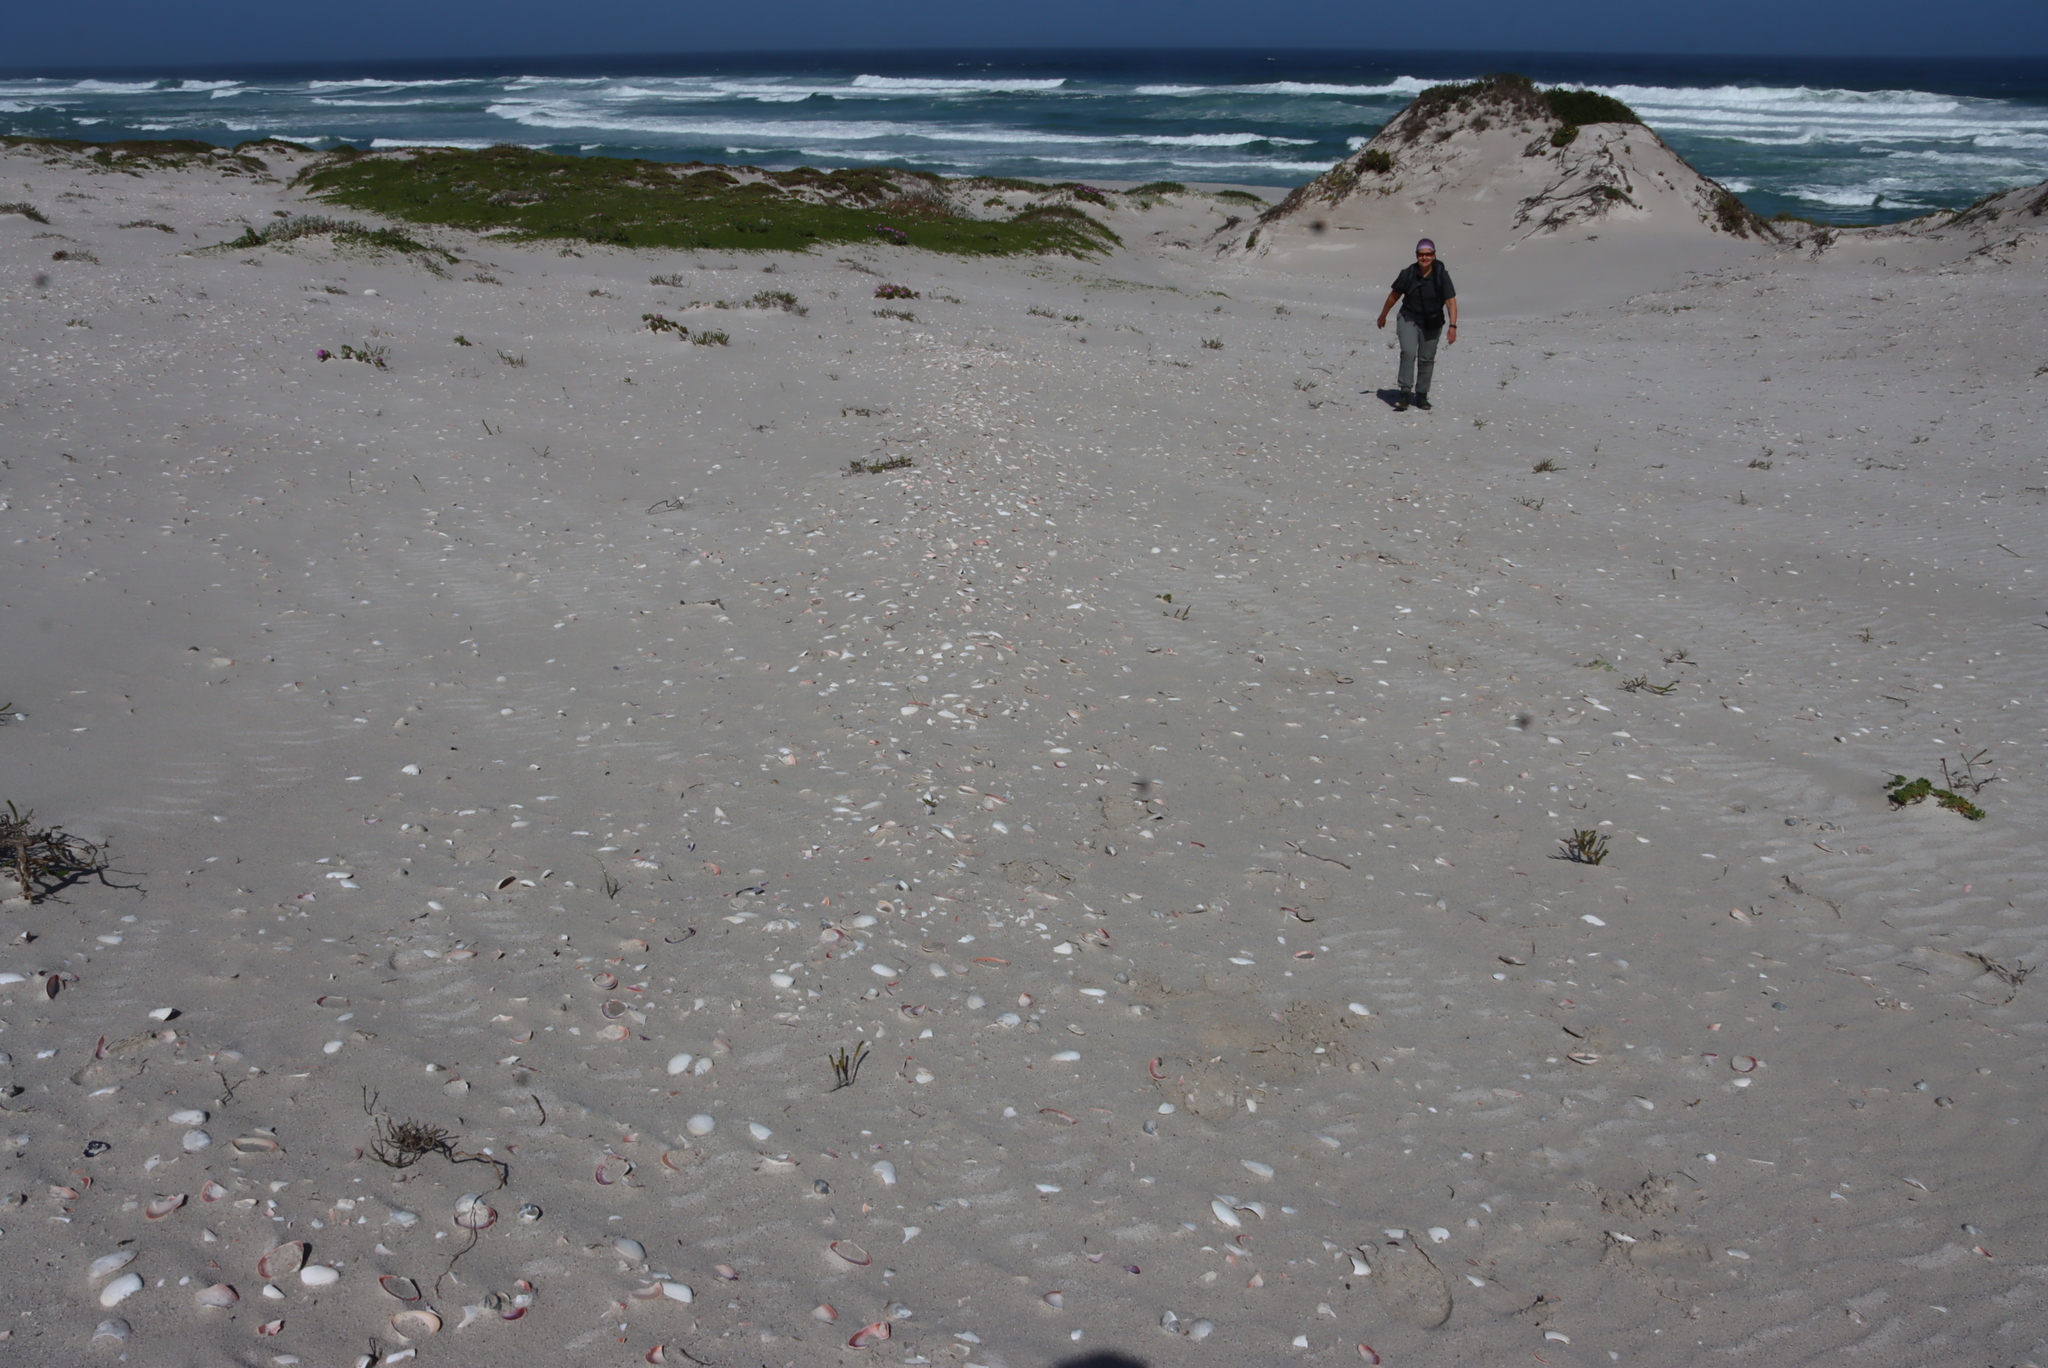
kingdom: Animalia
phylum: Mollusca
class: Bivalvia
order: Cardiida
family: Donacidae
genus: Donax
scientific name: Donax serra
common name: Giant south african wedge clam
